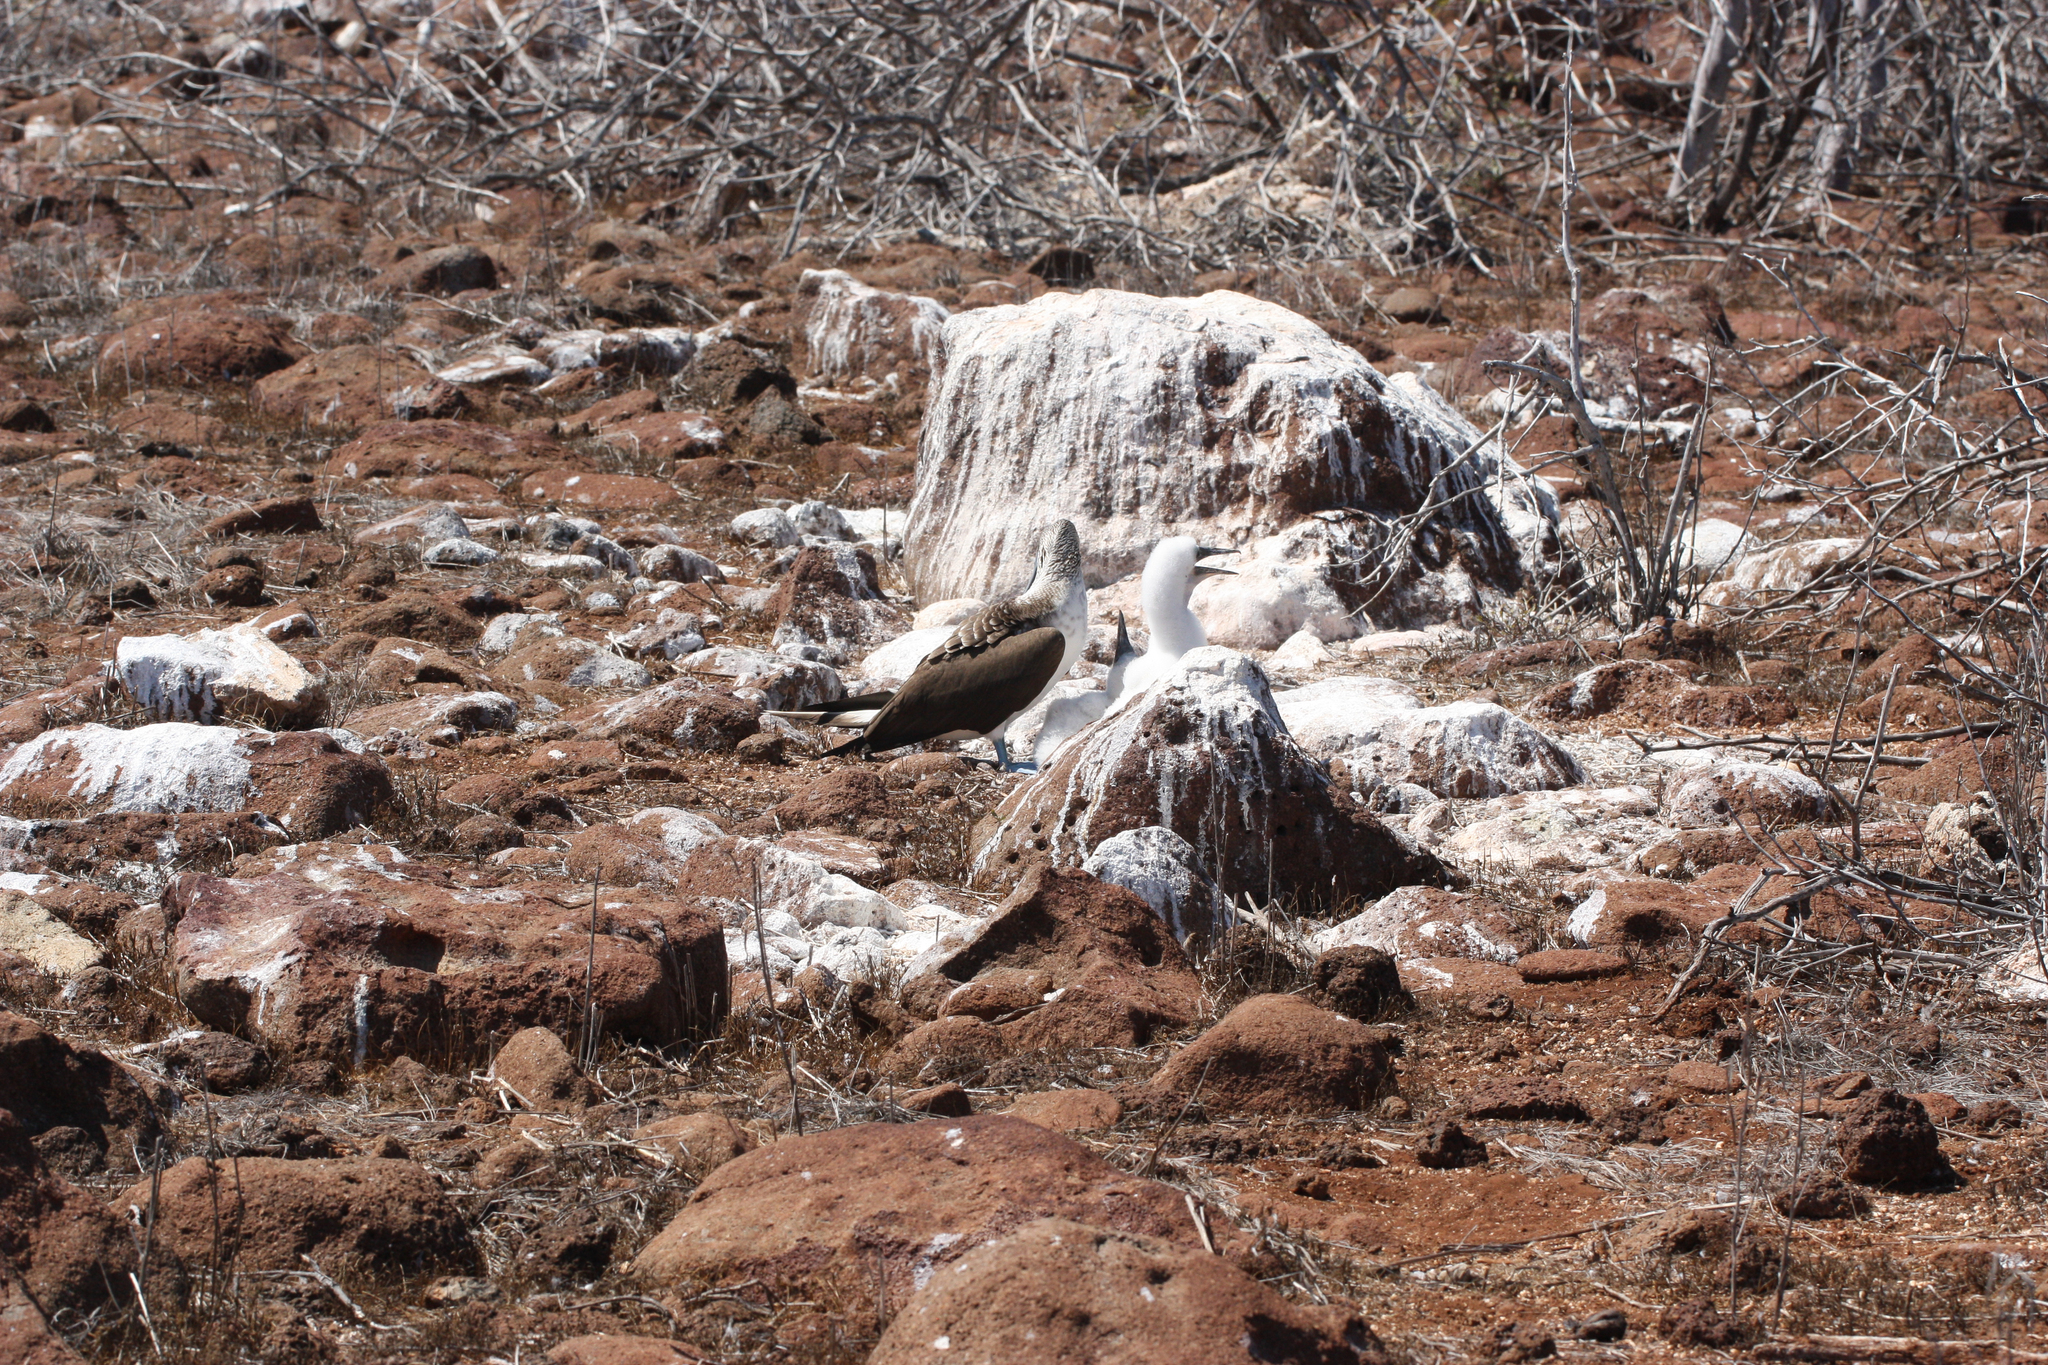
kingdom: Animalia
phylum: Chordata
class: Aves
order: Suliformes
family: Sulidae
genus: Sula
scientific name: Sula nebouxii
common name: Blue-footed booby
